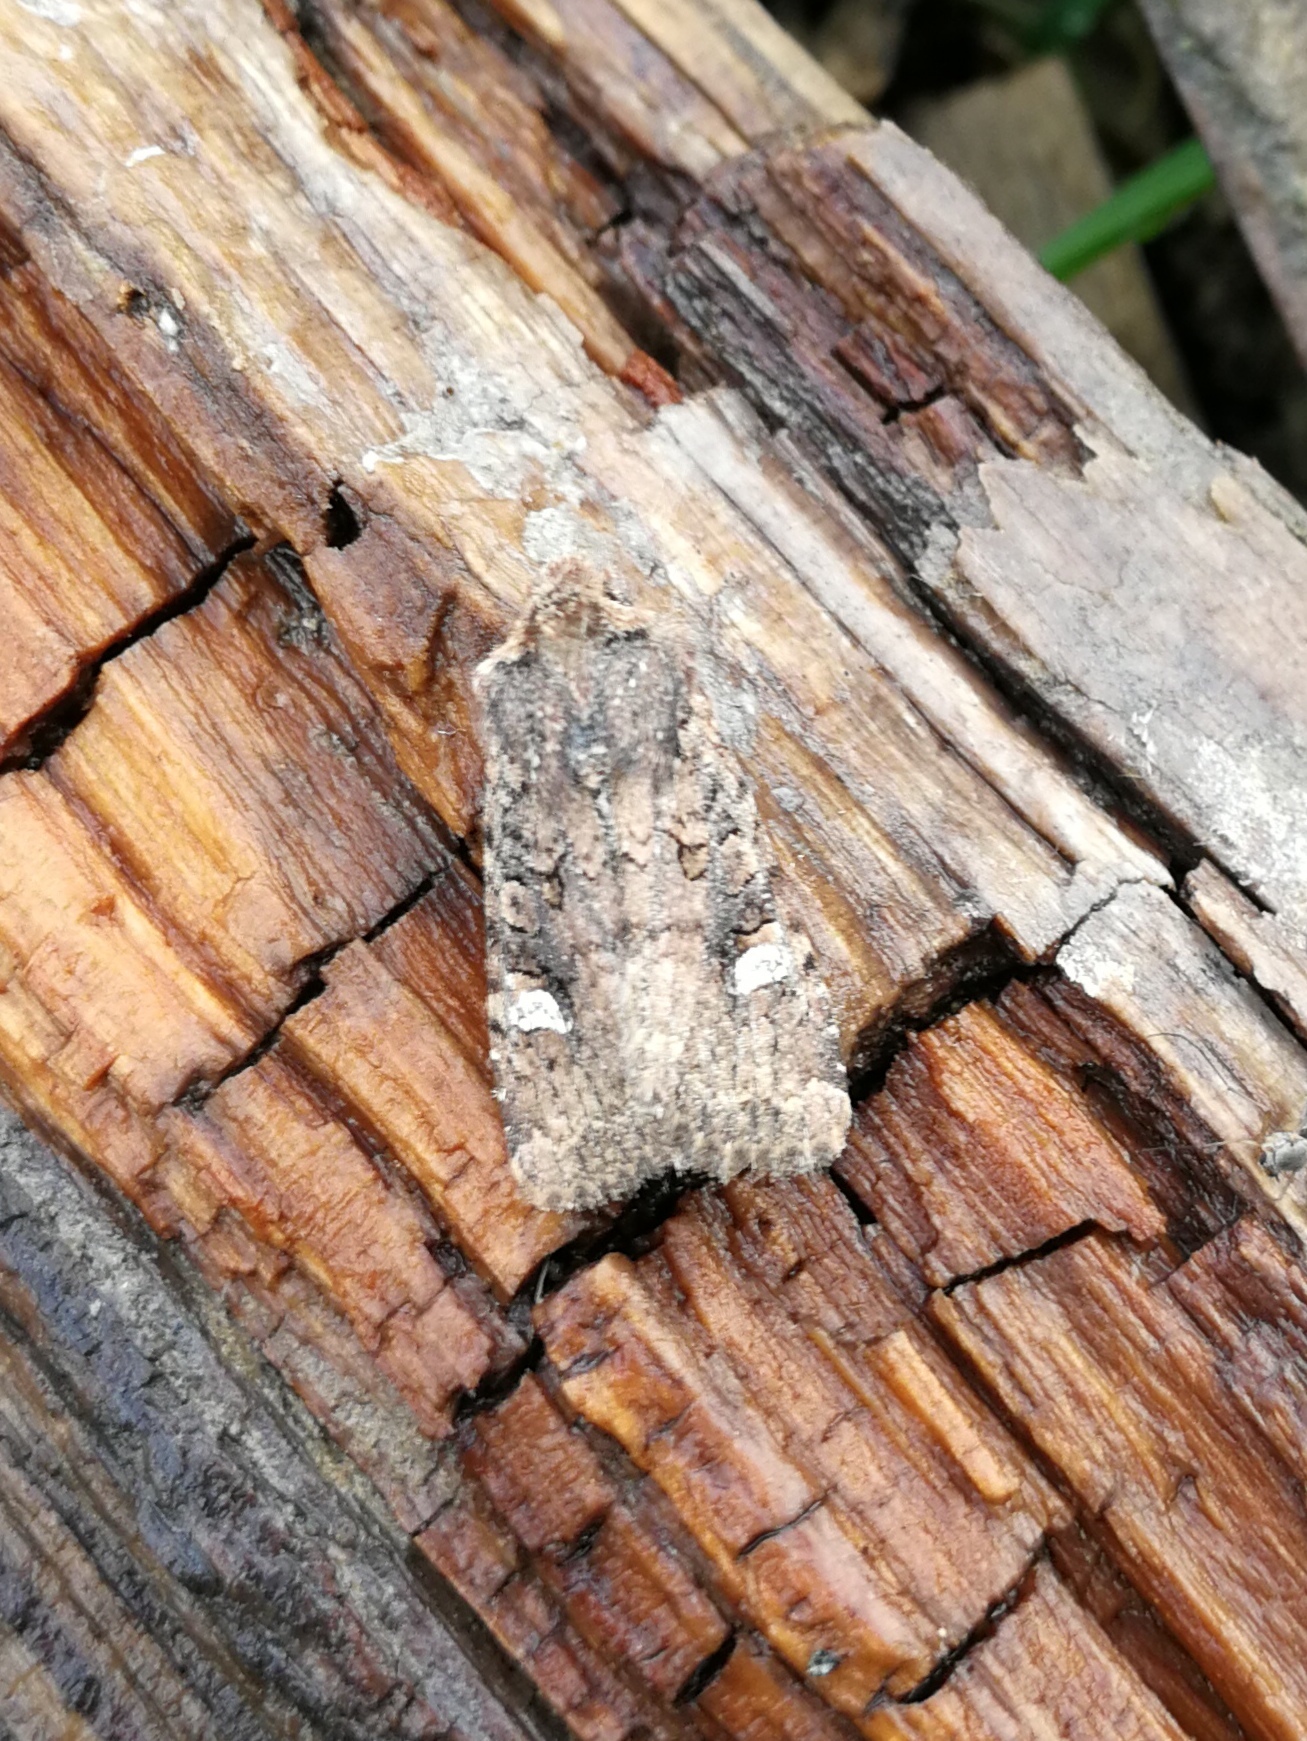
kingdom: Animalia
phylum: Arthropoda
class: Insecta
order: Lepidoptera
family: Noctuidae
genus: Dryobota
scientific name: Dryobota labecula
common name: Oak rustic
